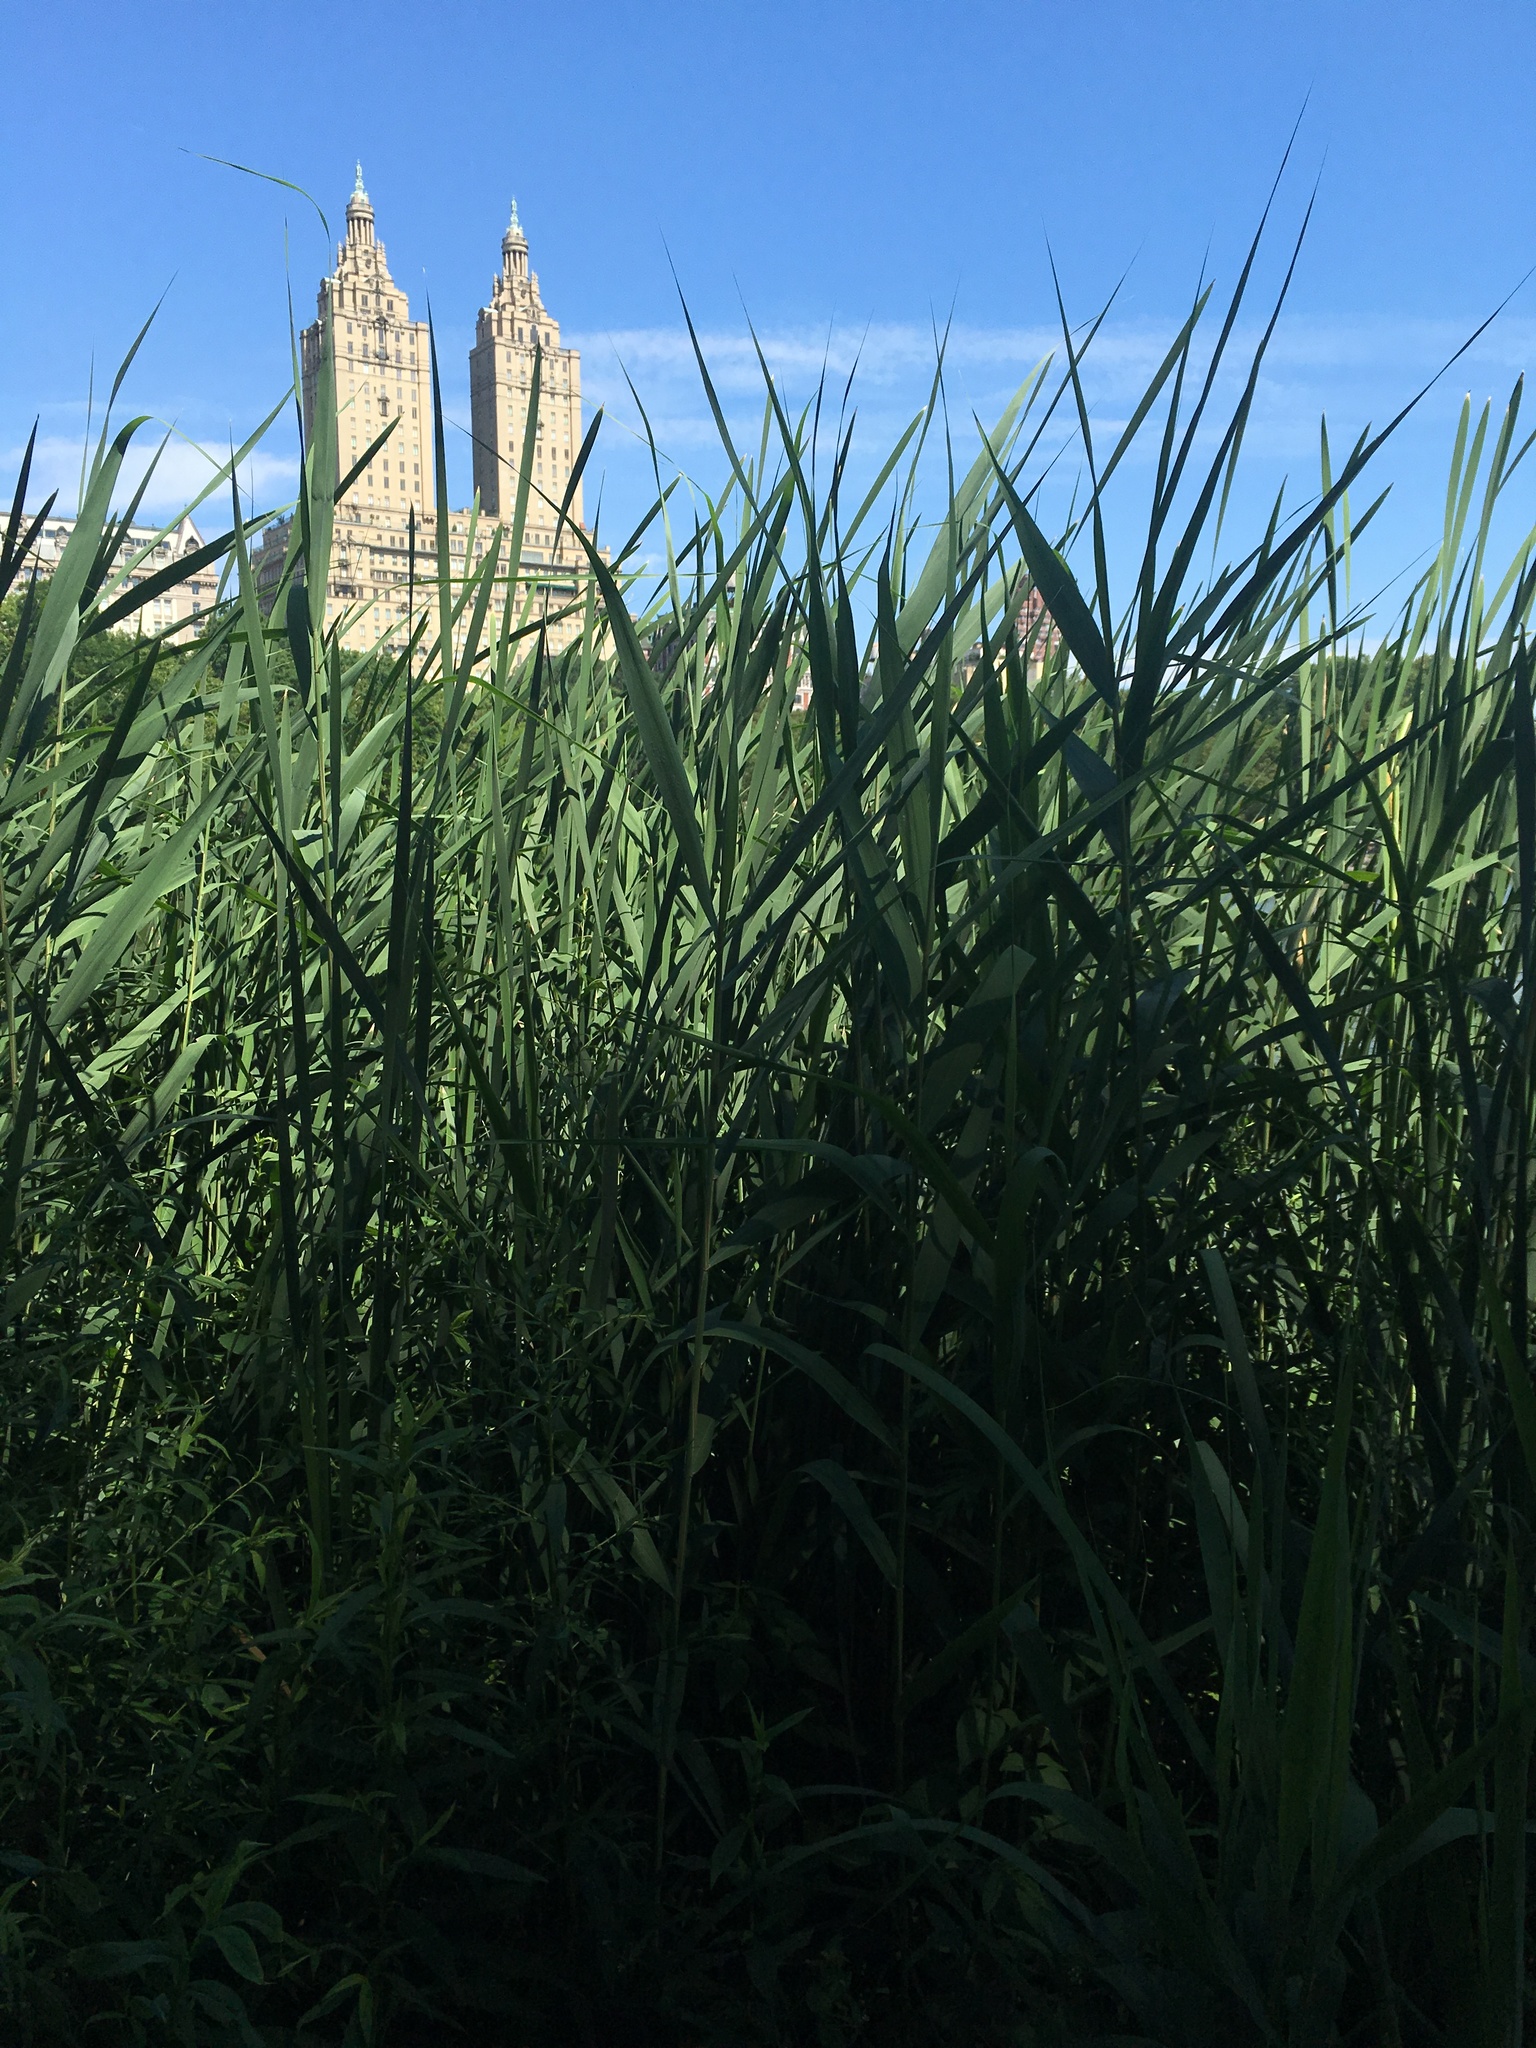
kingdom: Plantae
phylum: Tracheophyta
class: Liliopsida
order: Poales
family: Poaceae
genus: Phragmites
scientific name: Phragmites australis
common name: Common reed
